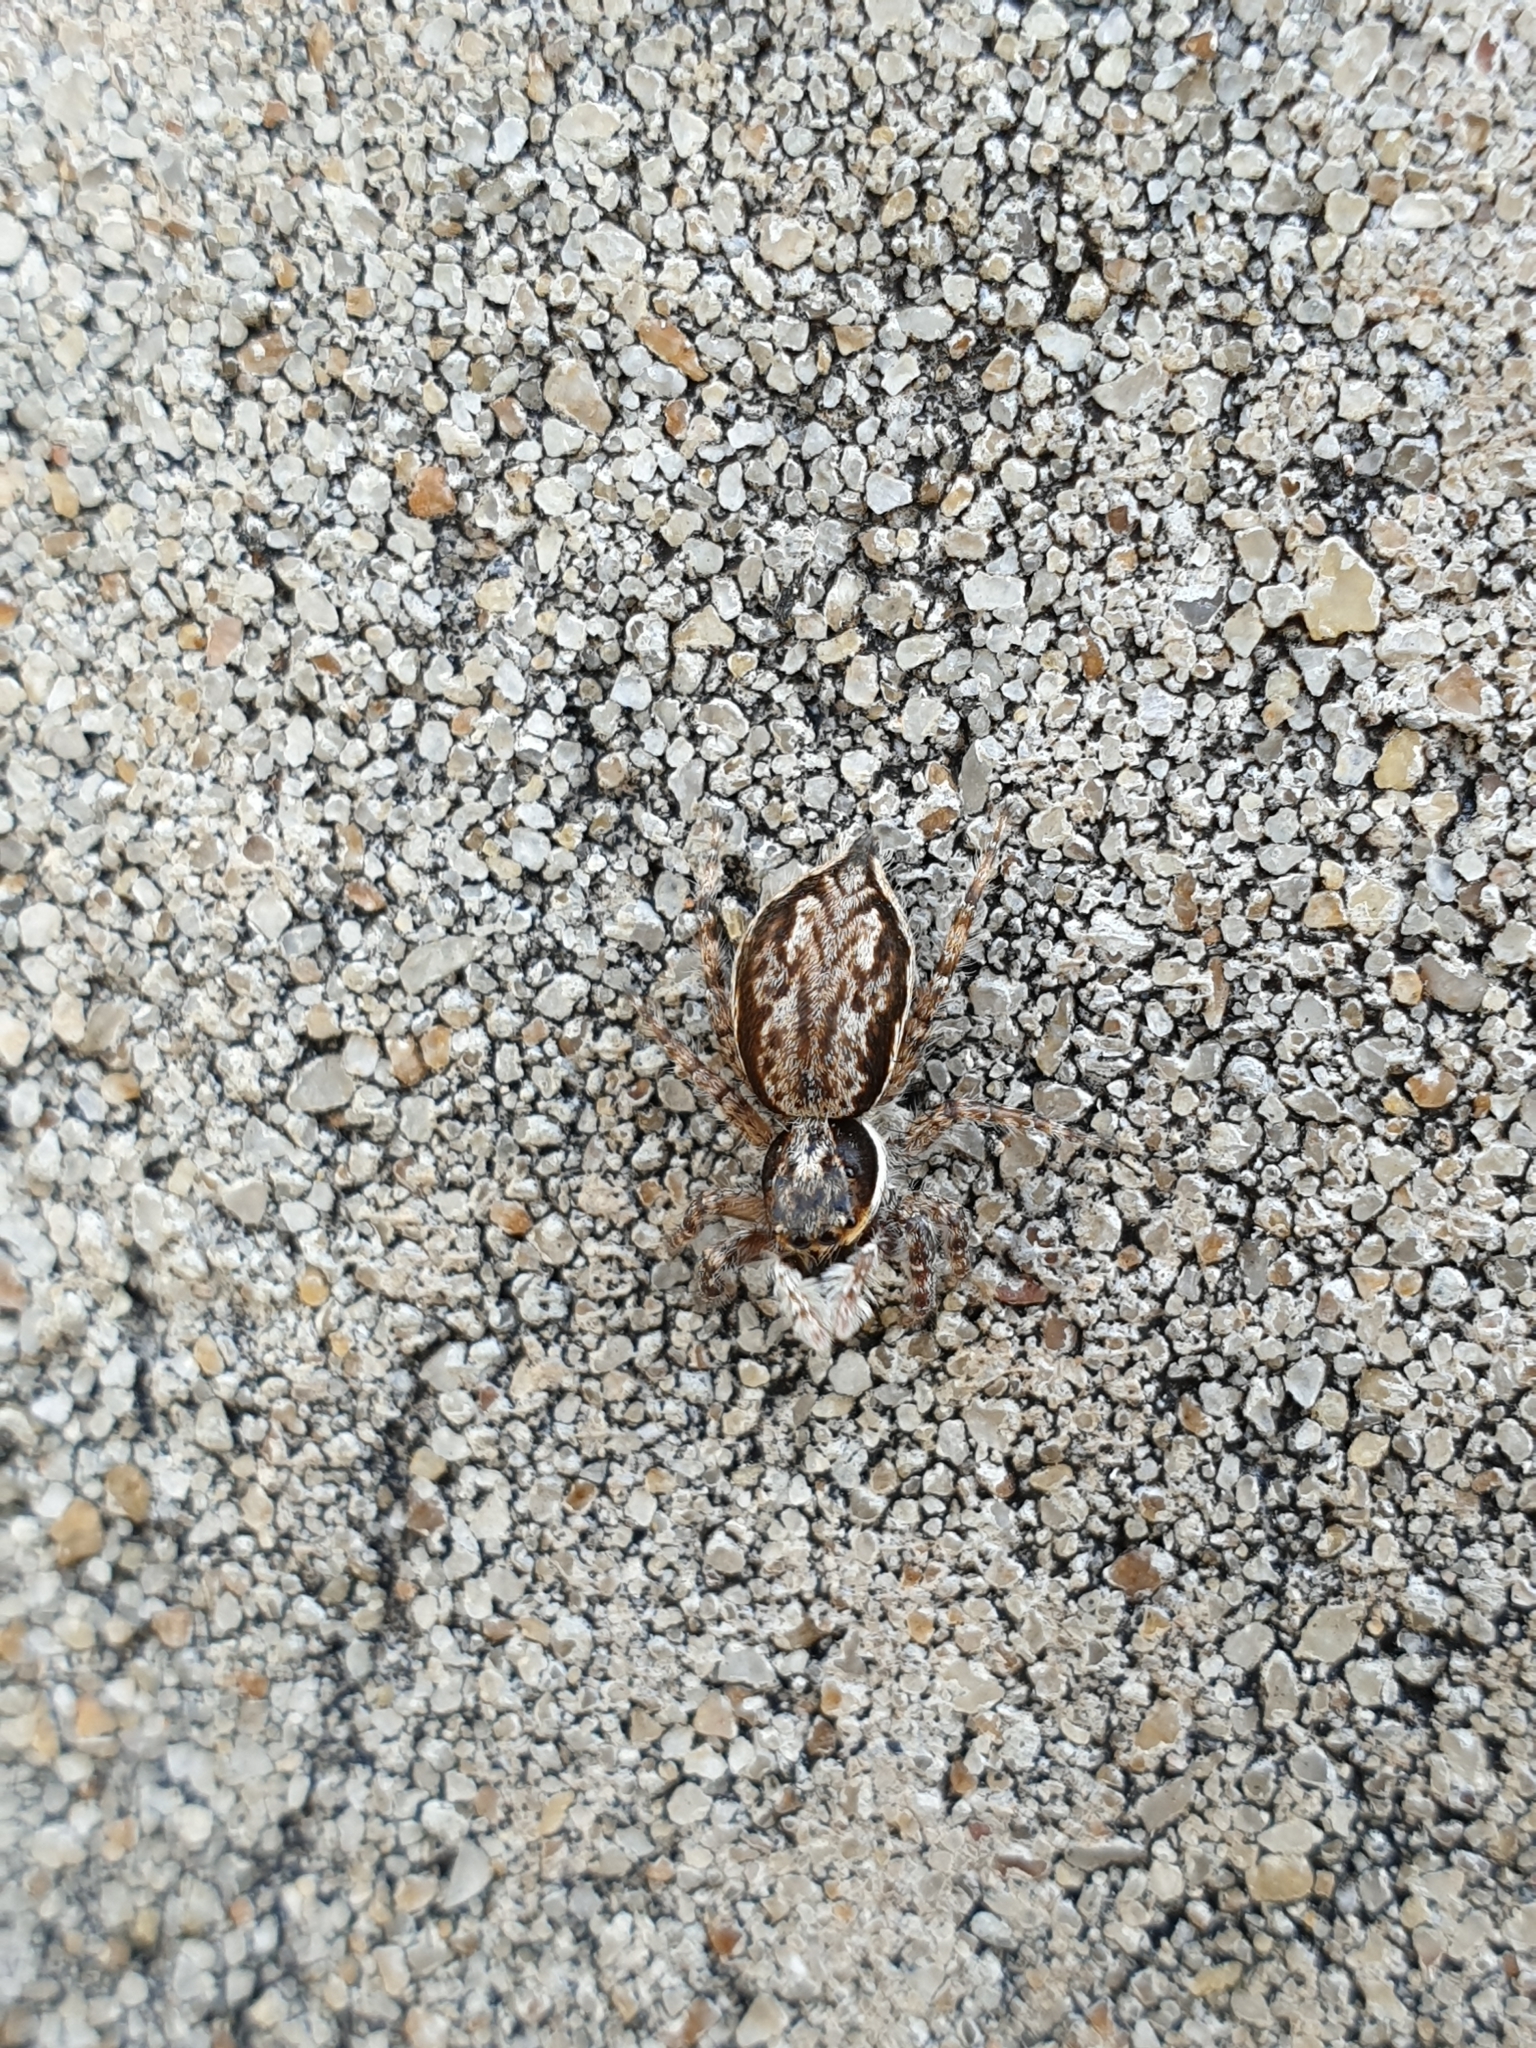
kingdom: Animalia
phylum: Arthropoda
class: Arachnida
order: Araneae
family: Salticidae
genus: Menemerus
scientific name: Menemerus bivittatus
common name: Gray wall jumper
